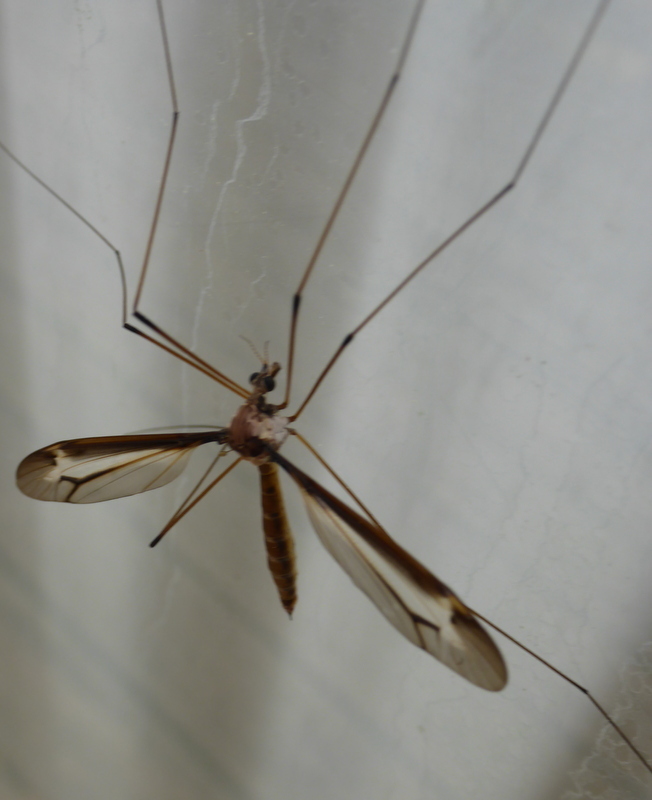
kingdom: Animalia
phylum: Arthropoda
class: Insecta
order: Diptera
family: Tipulidae
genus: Tipula
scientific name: Tipula tricolor
